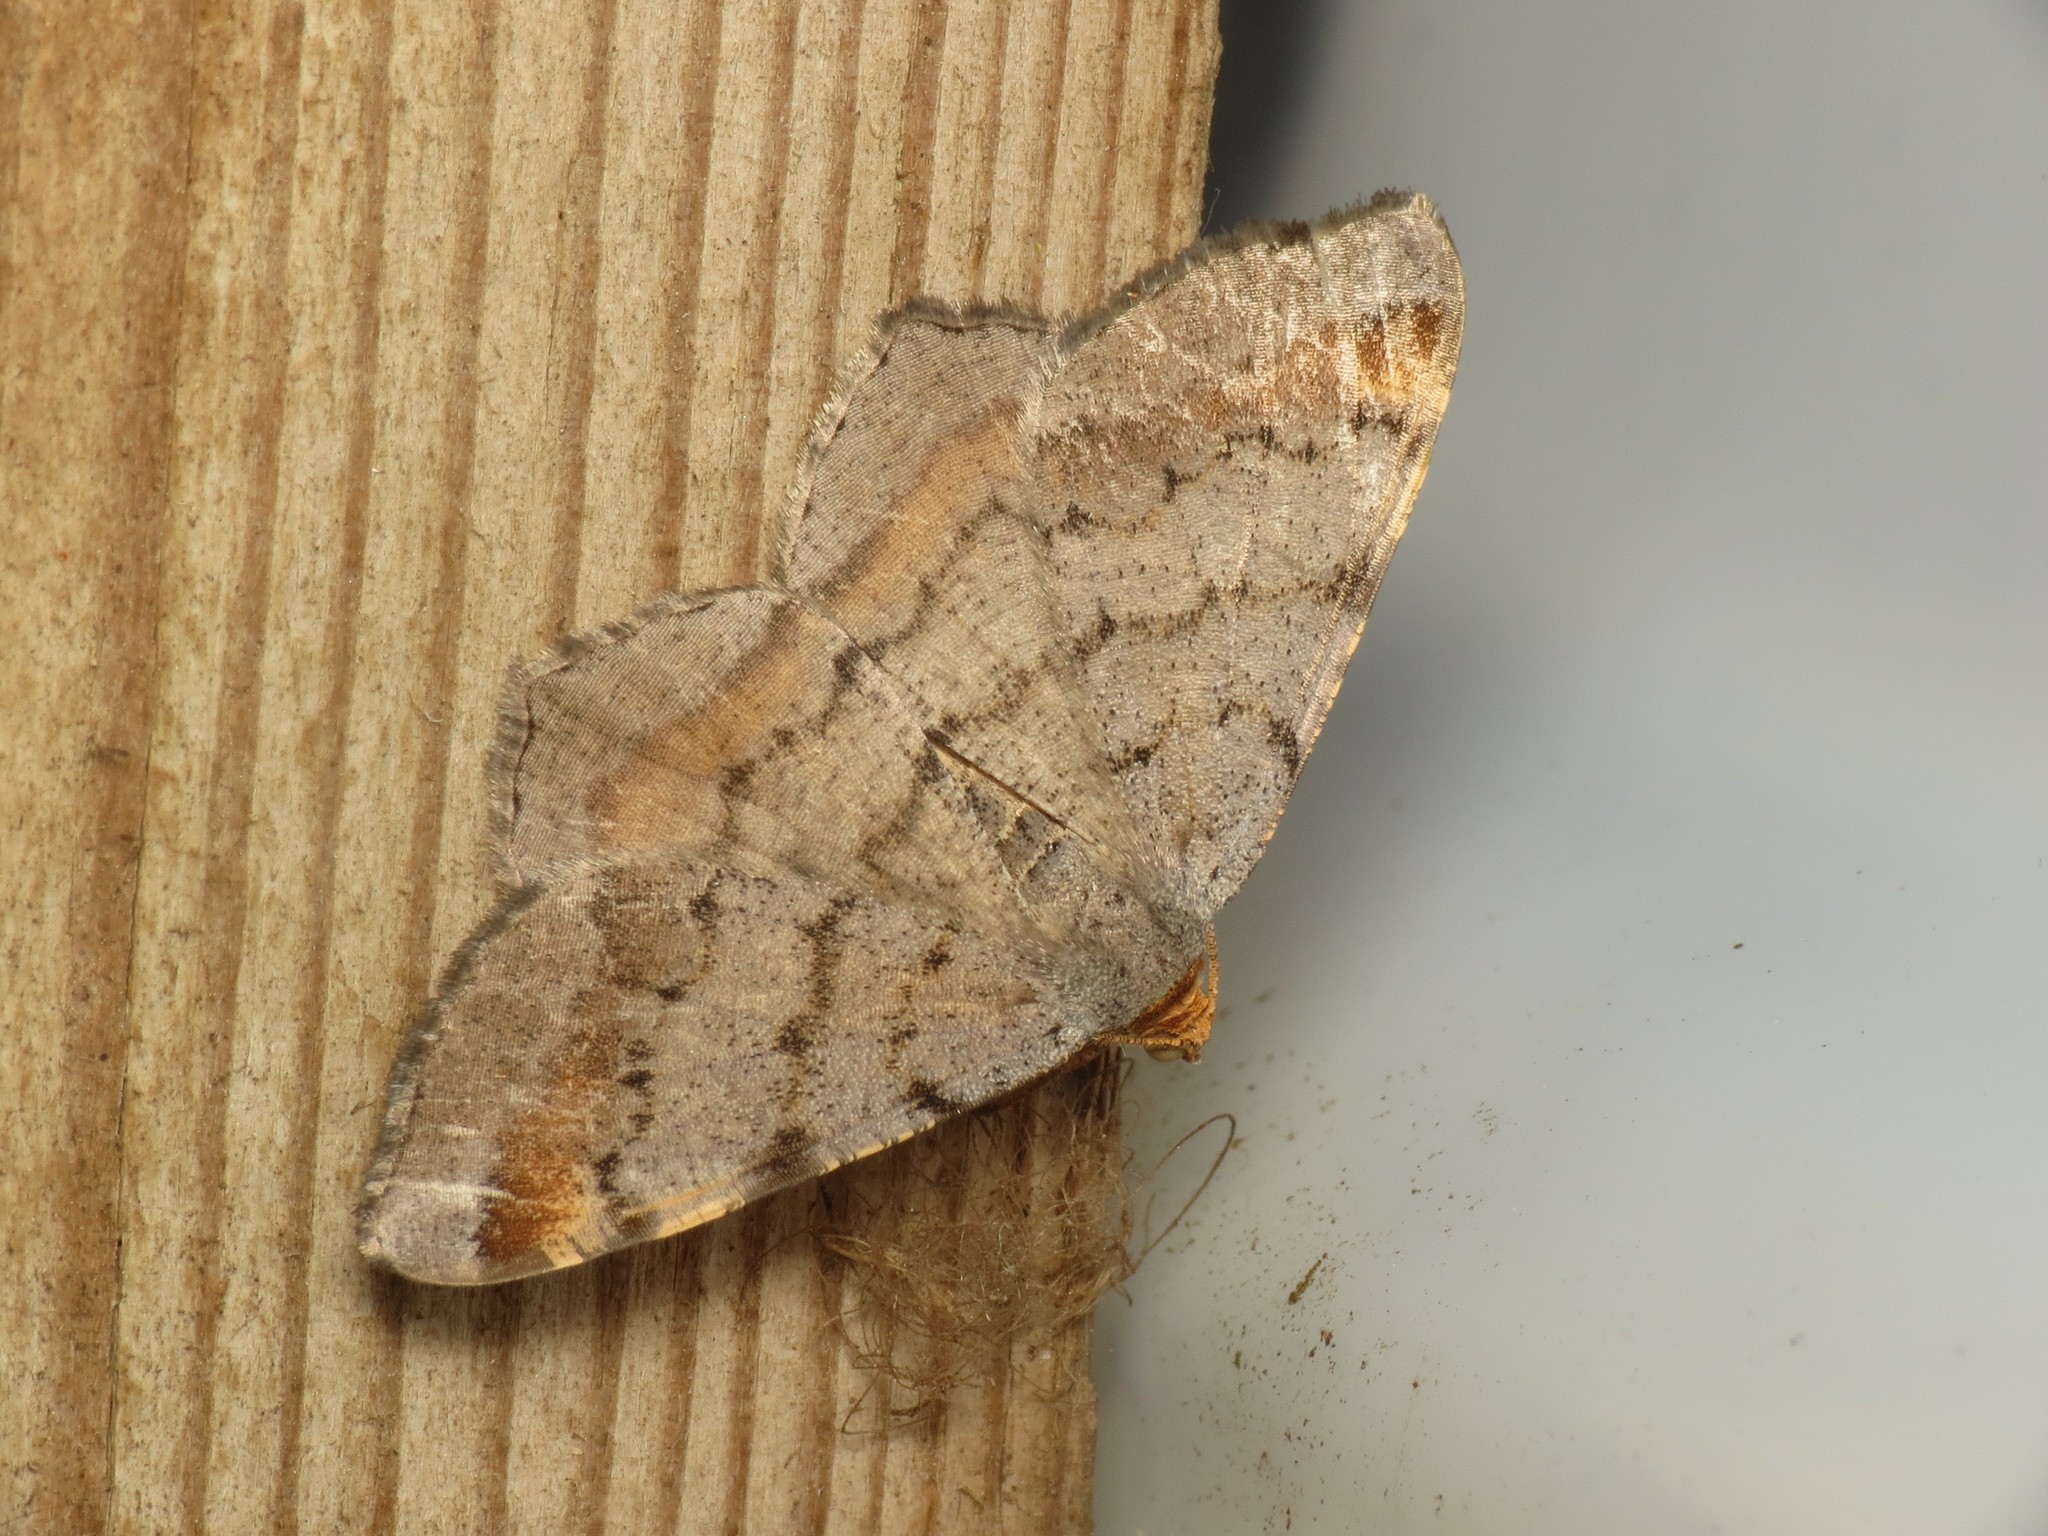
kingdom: Animalia
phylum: Arthropoda
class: Insecta
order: Lepidoptera
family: Geometridae
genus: Macaria
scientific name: Macaria liturata
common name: Tawny-barred angle
